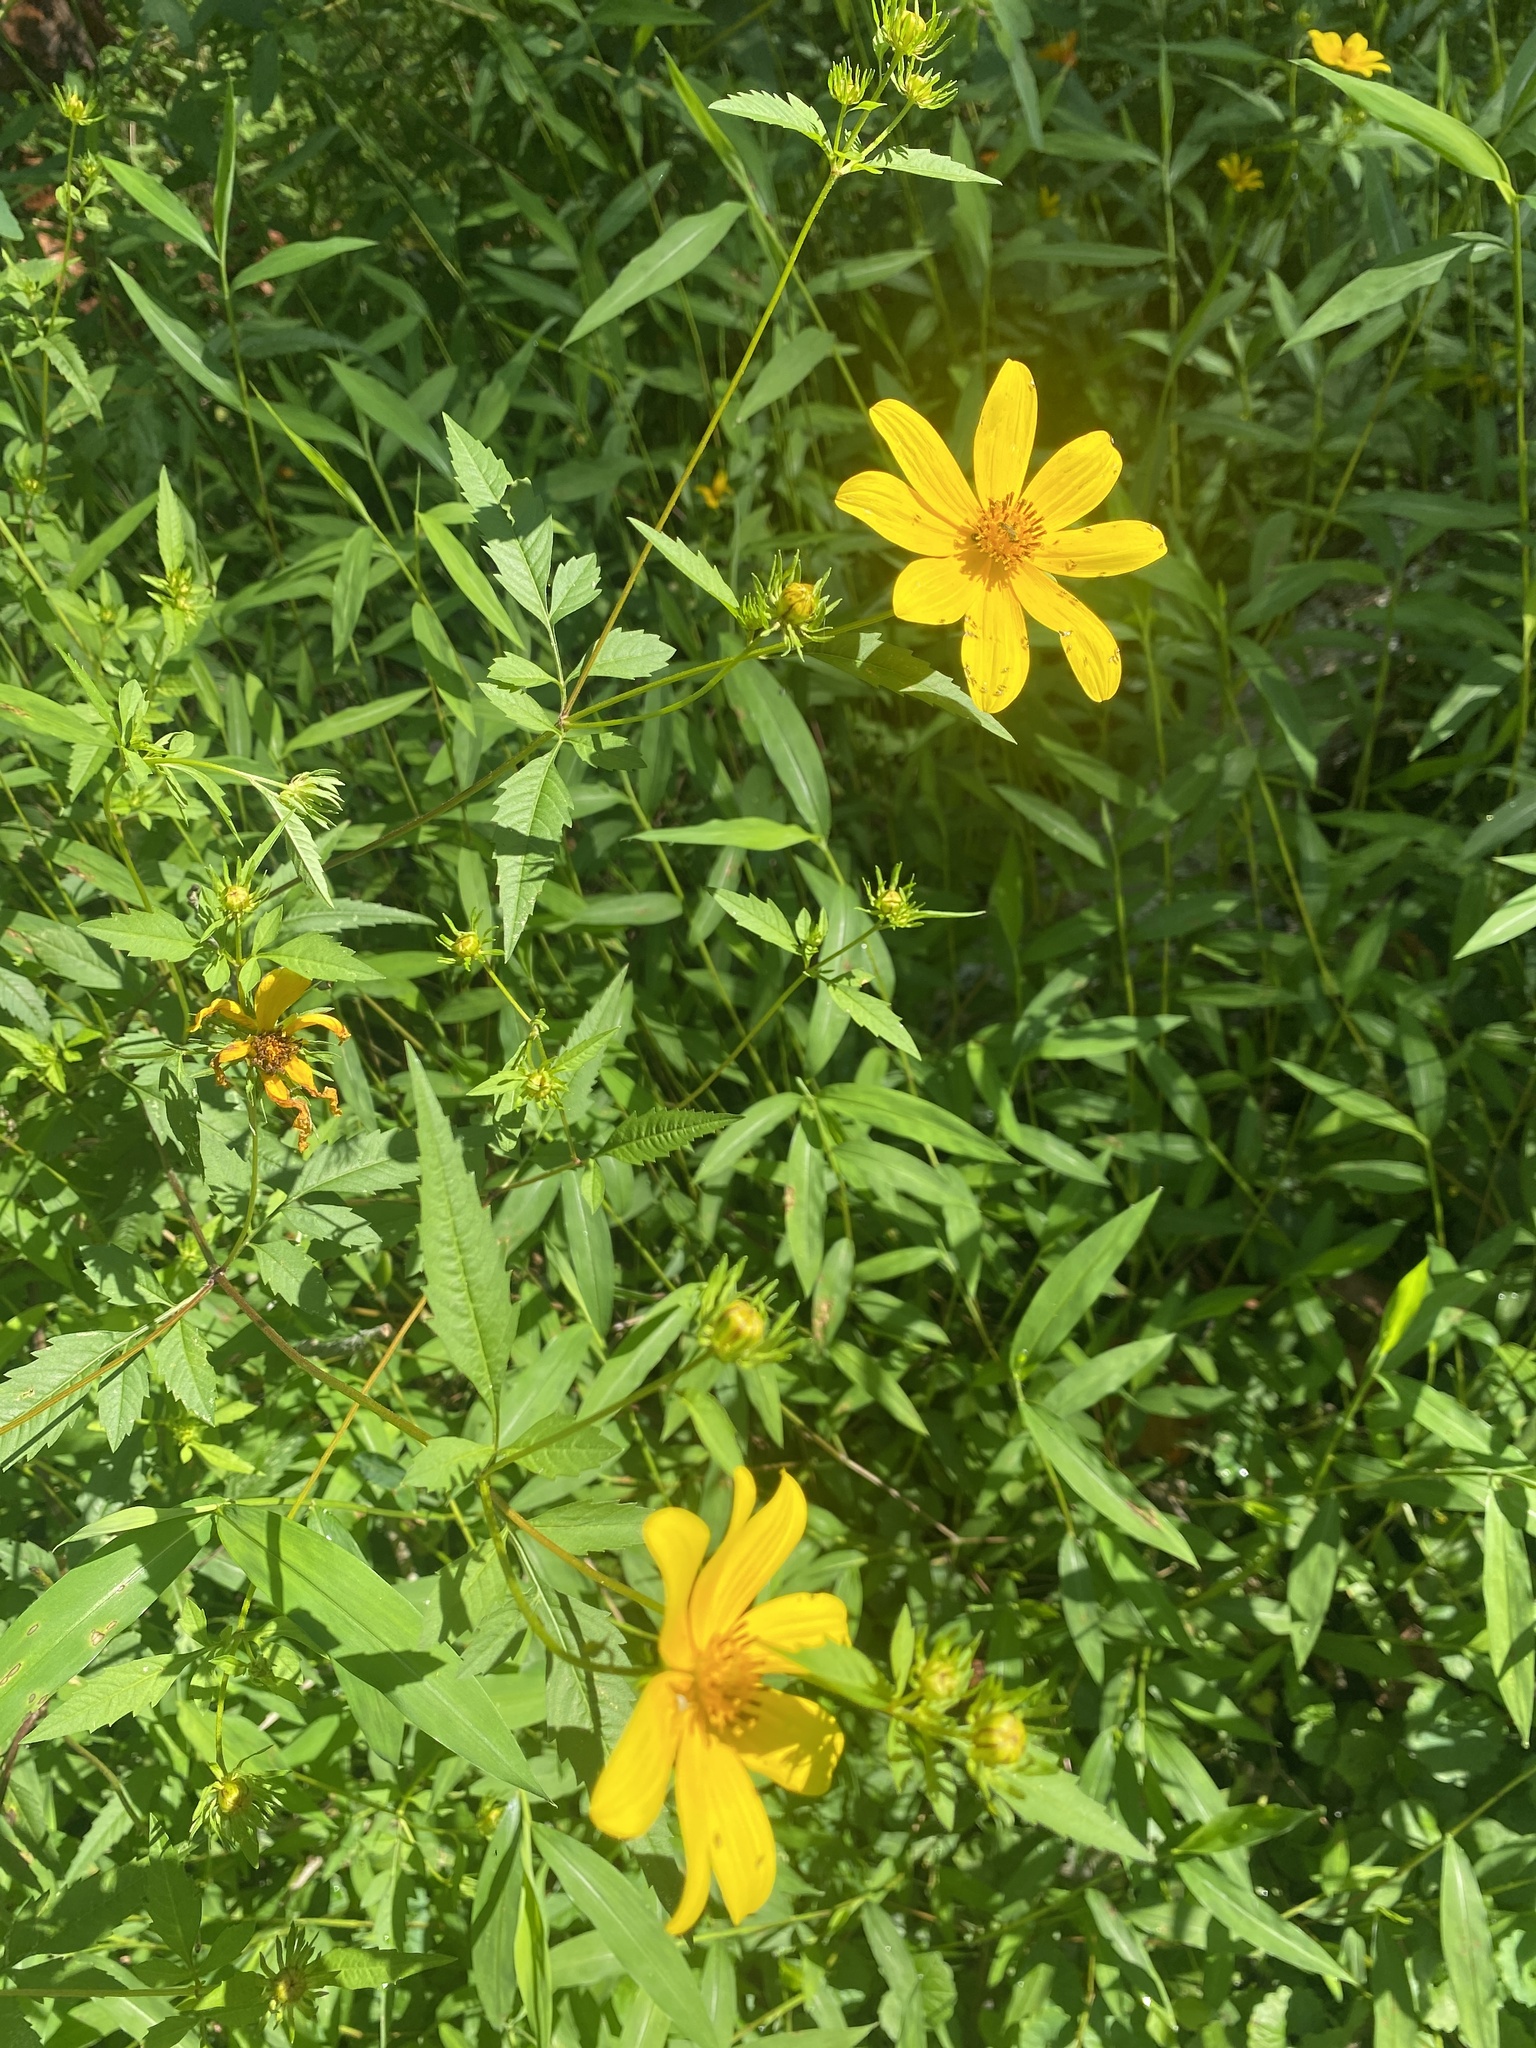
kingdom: Plantae
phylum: Tracheophyta
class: Magnoliopsida
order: Asterales
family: Asteraceae
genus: Bidens
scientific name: Bidens aristosa
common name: Western tickseed
